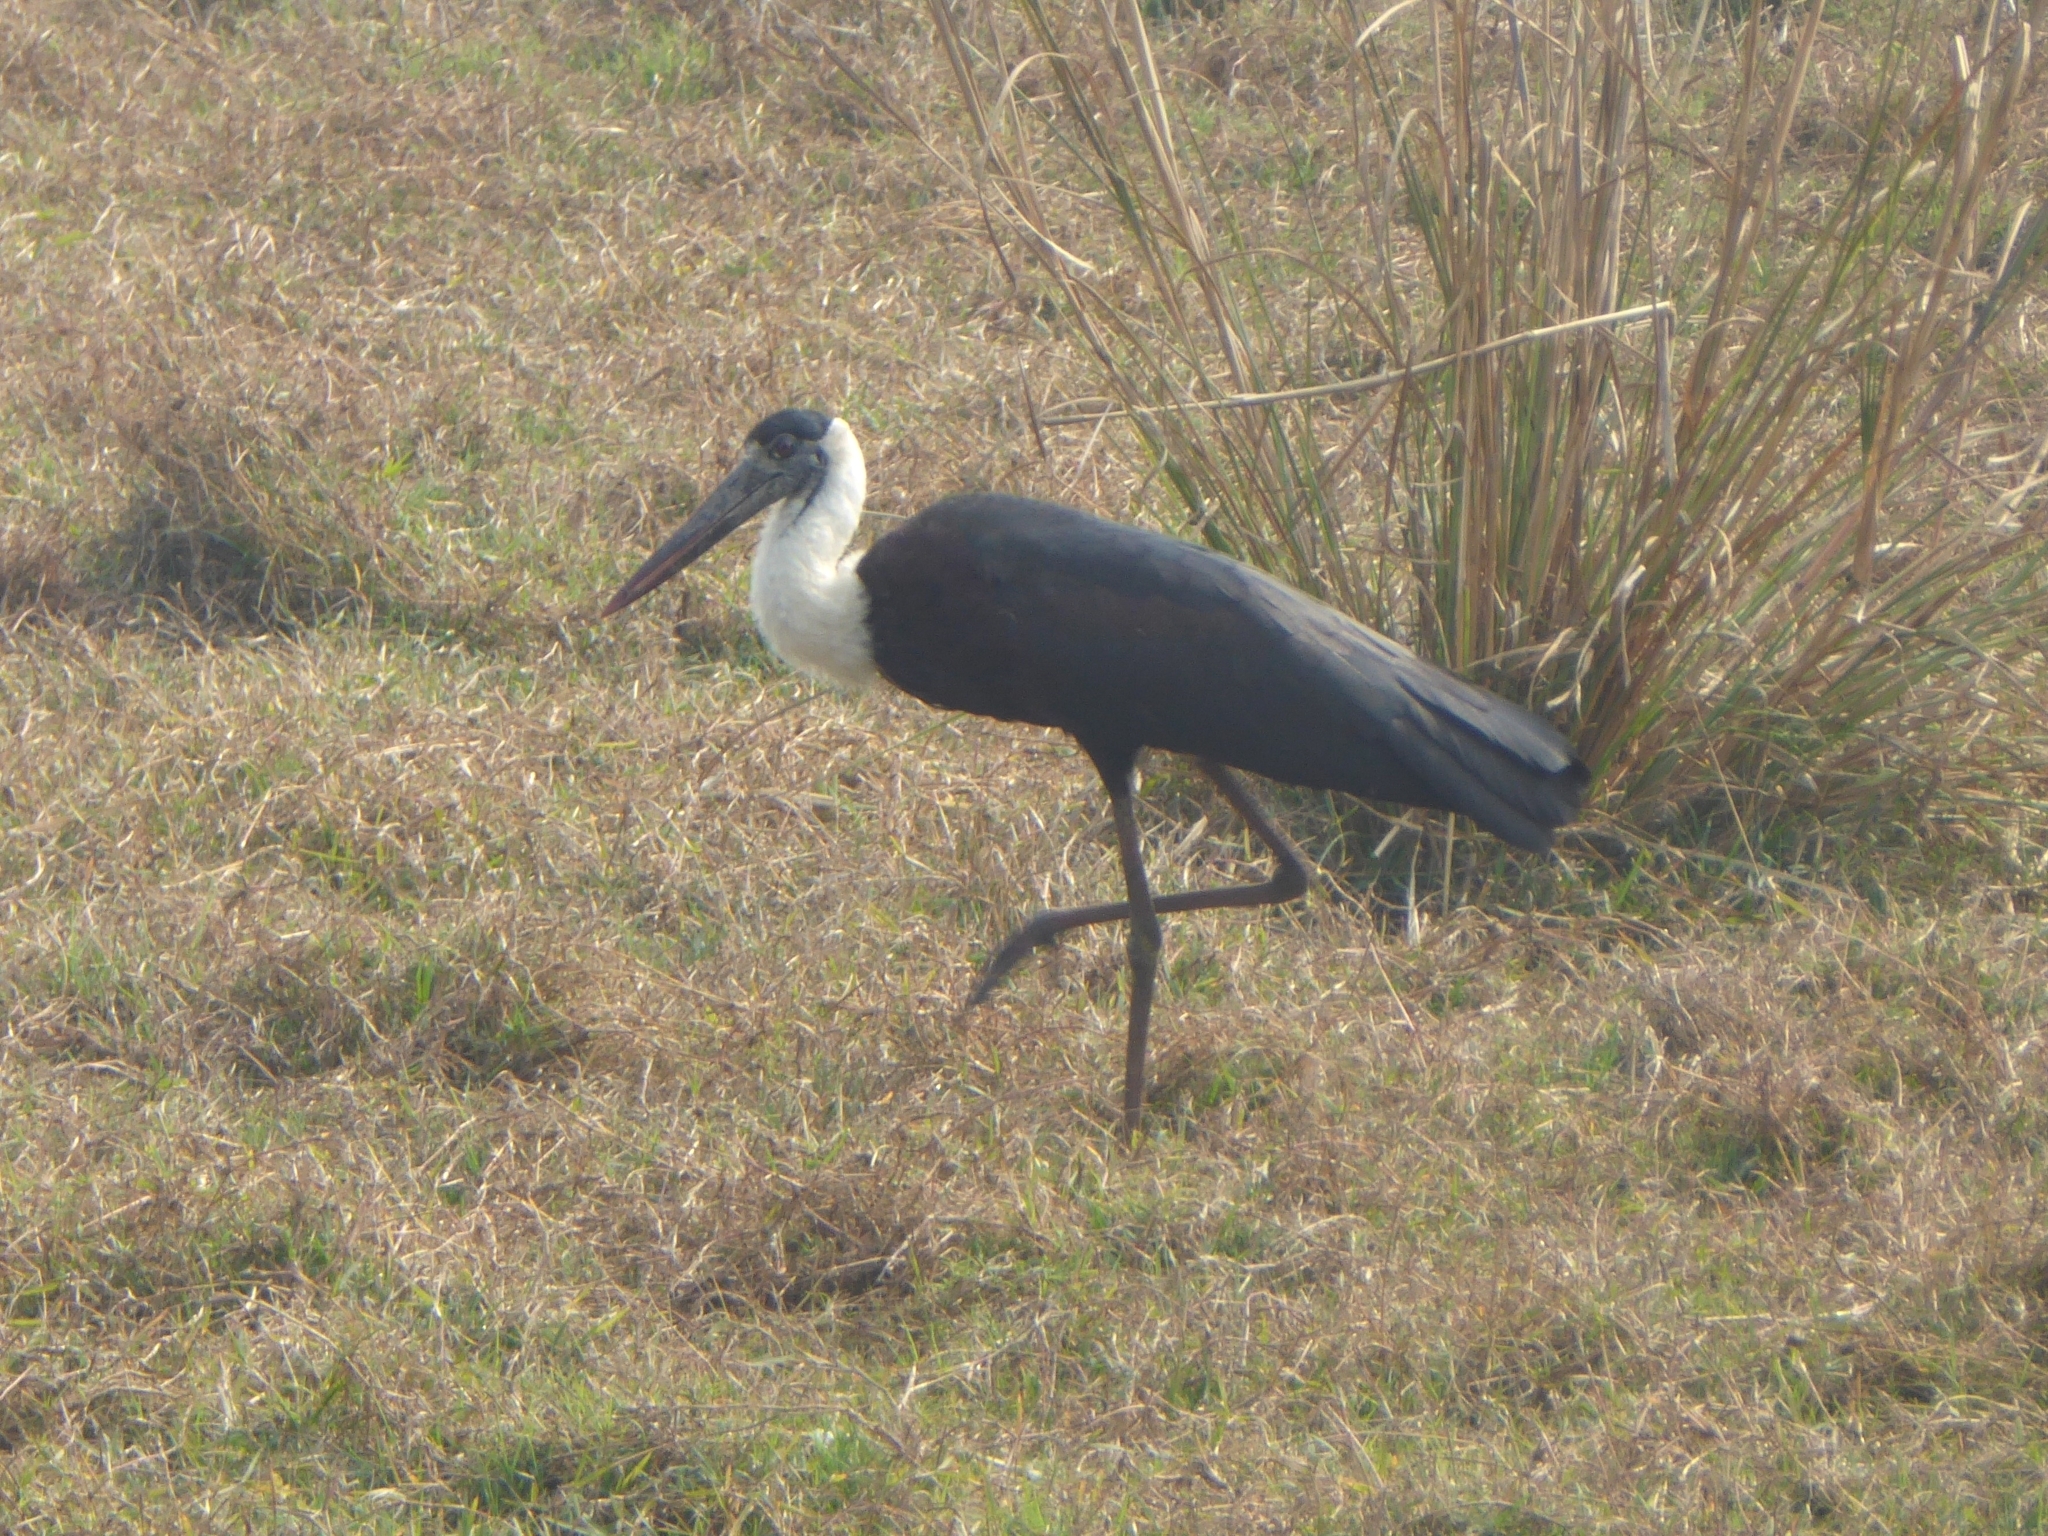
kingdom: Animalia
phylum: Chordata
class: Aves
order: Ciconiiformes
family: Ciconiidae
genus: Ciconia
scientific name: Ciconia episcopus
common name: Woolly-necked stork
